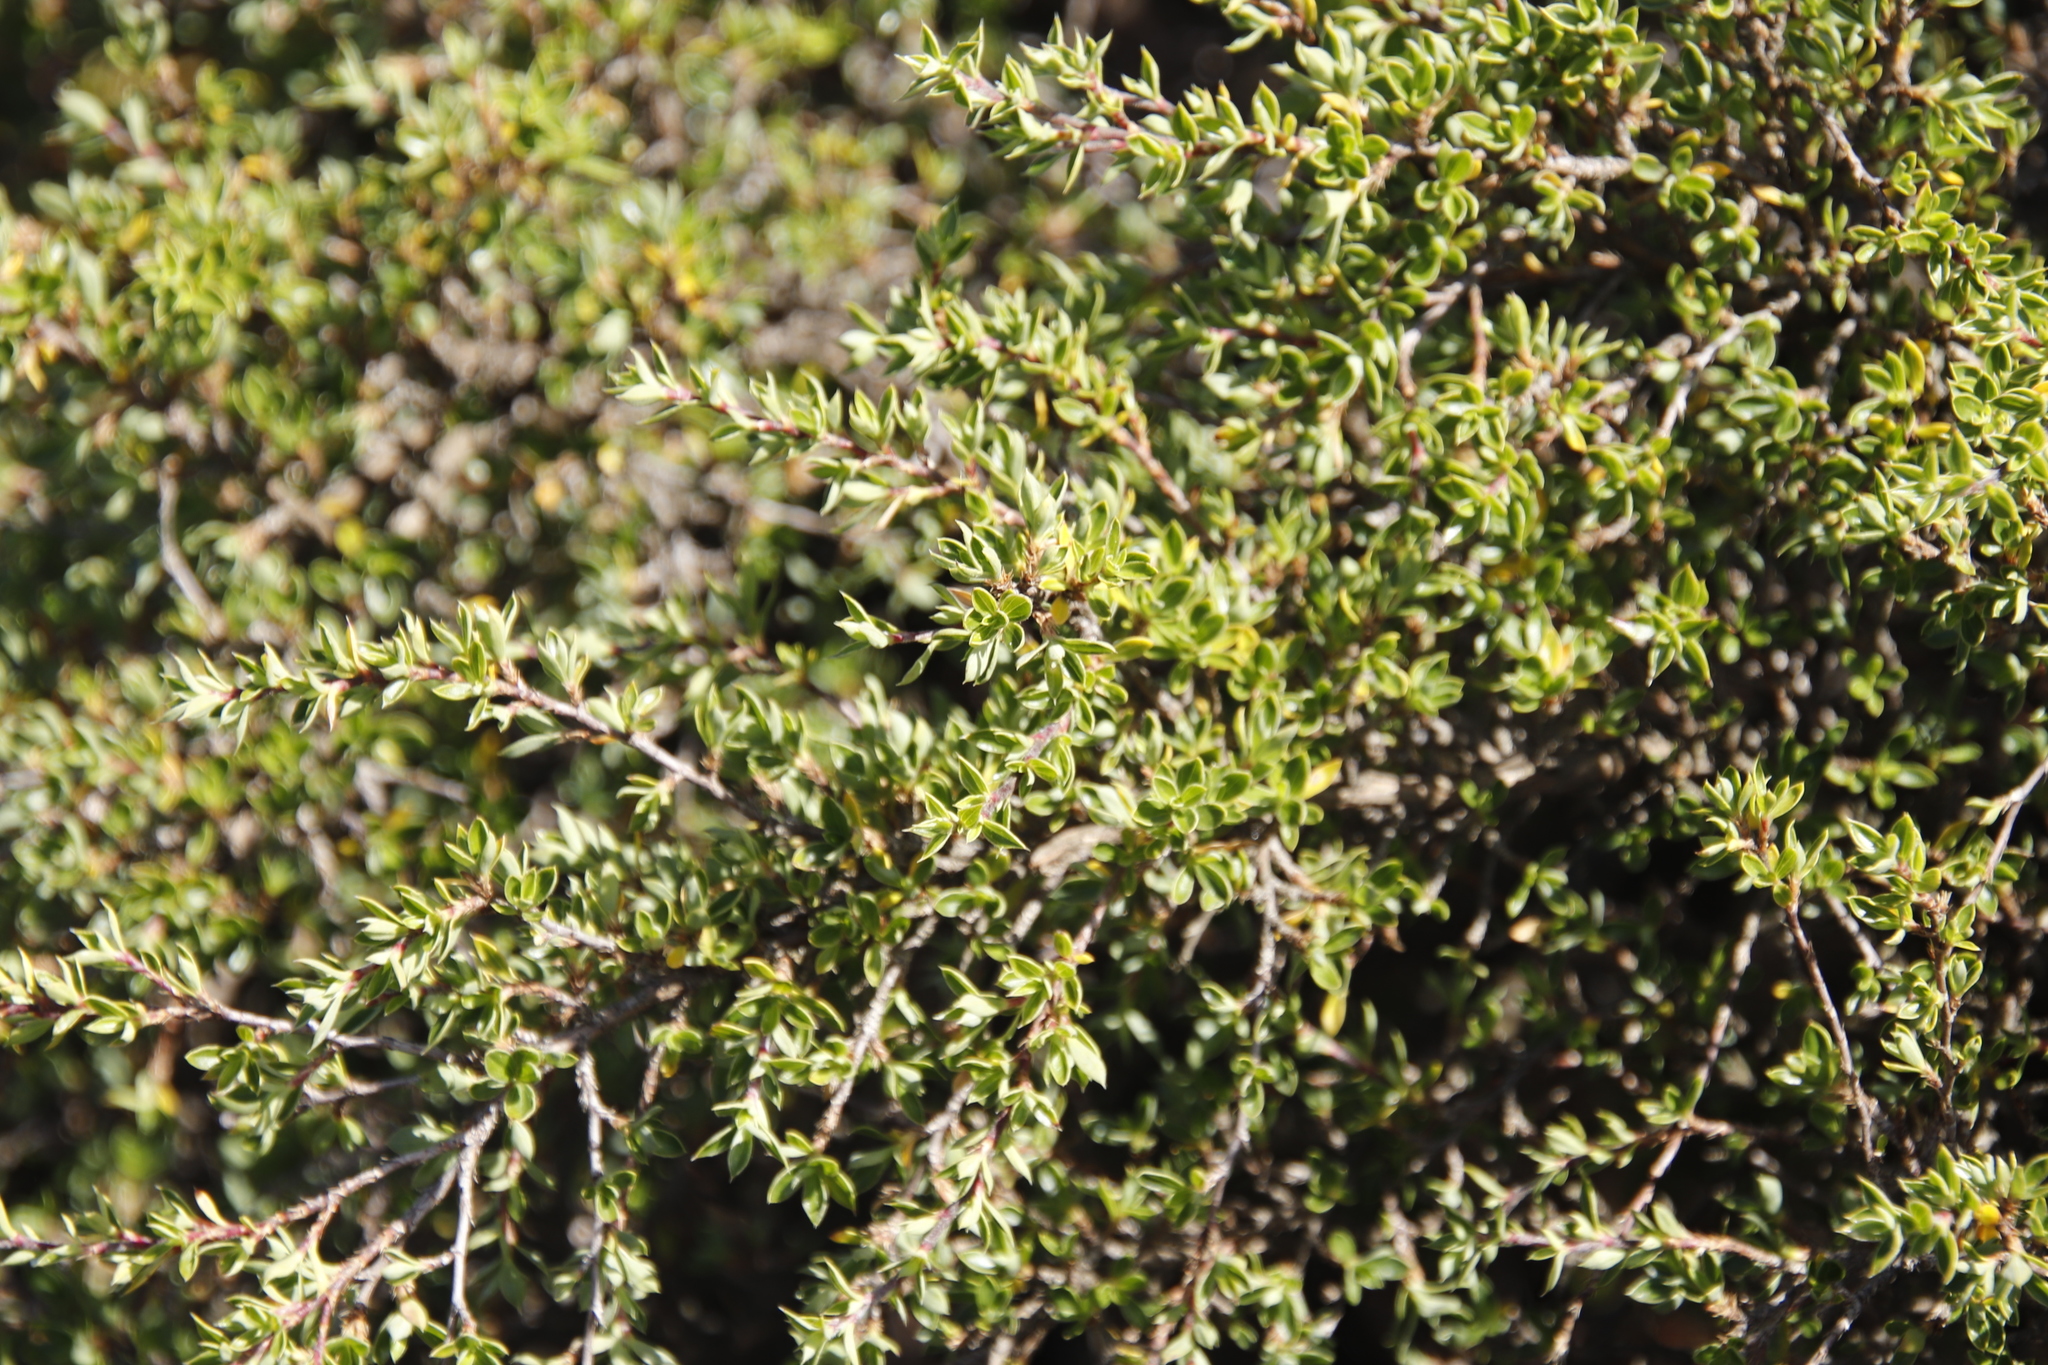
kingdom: Plantae
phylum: Tracheophyta
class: Magnoliopsida
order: Rosales
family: Rosaceae
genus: Cliffortia
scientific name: Cliffortia tridentata
